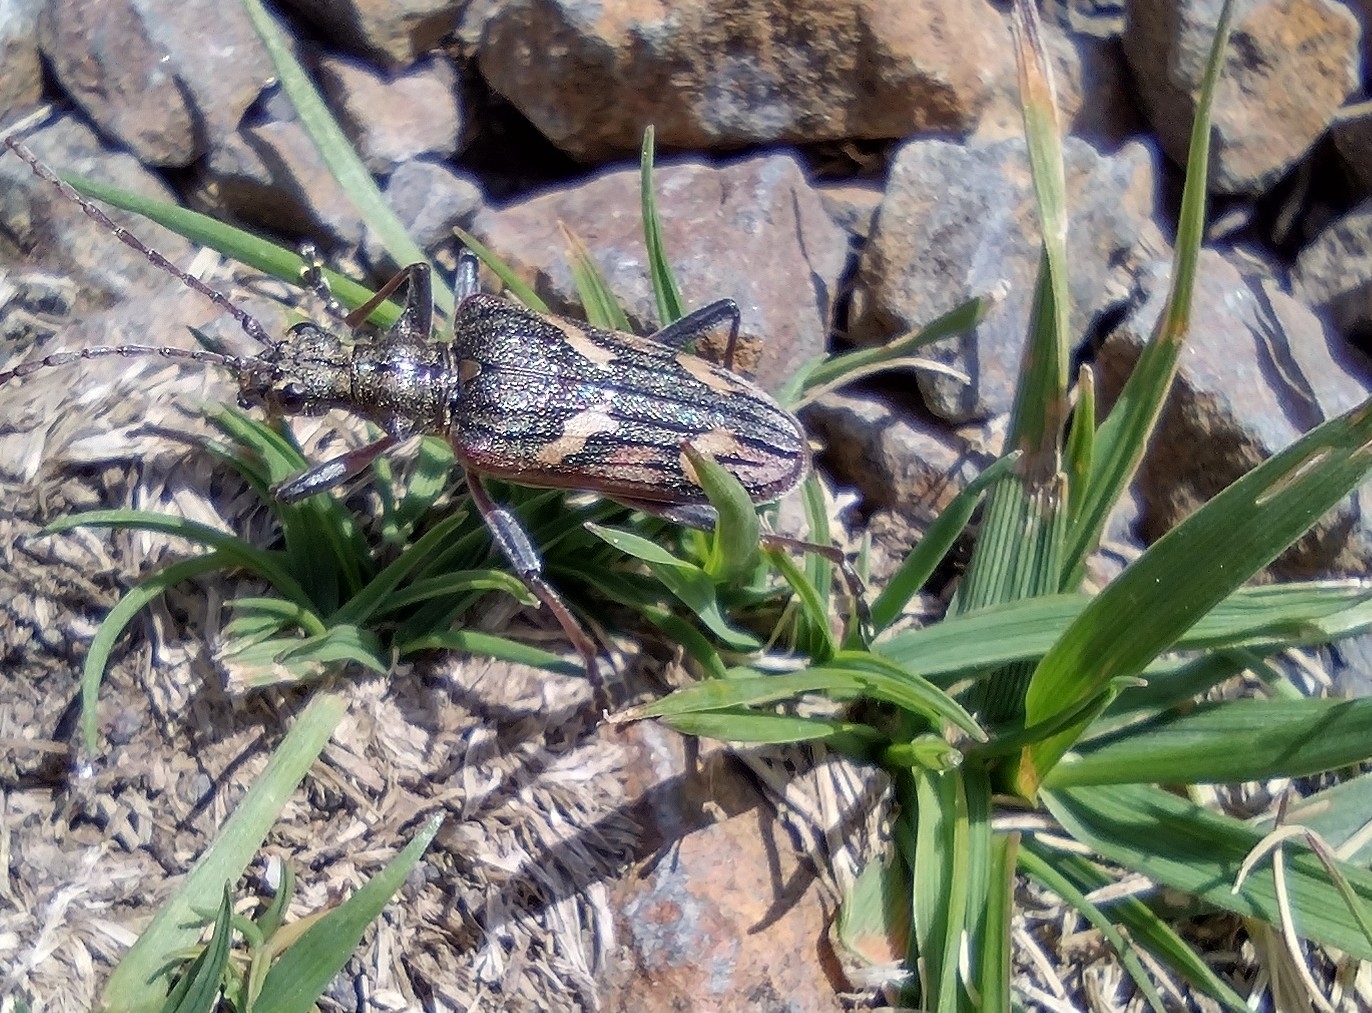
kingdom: Animalia
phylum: Arthropoda
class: Insecta
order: Coleoptera
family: Cerambycidae
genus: Rhagium
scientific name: Rhagium bifasciatum
